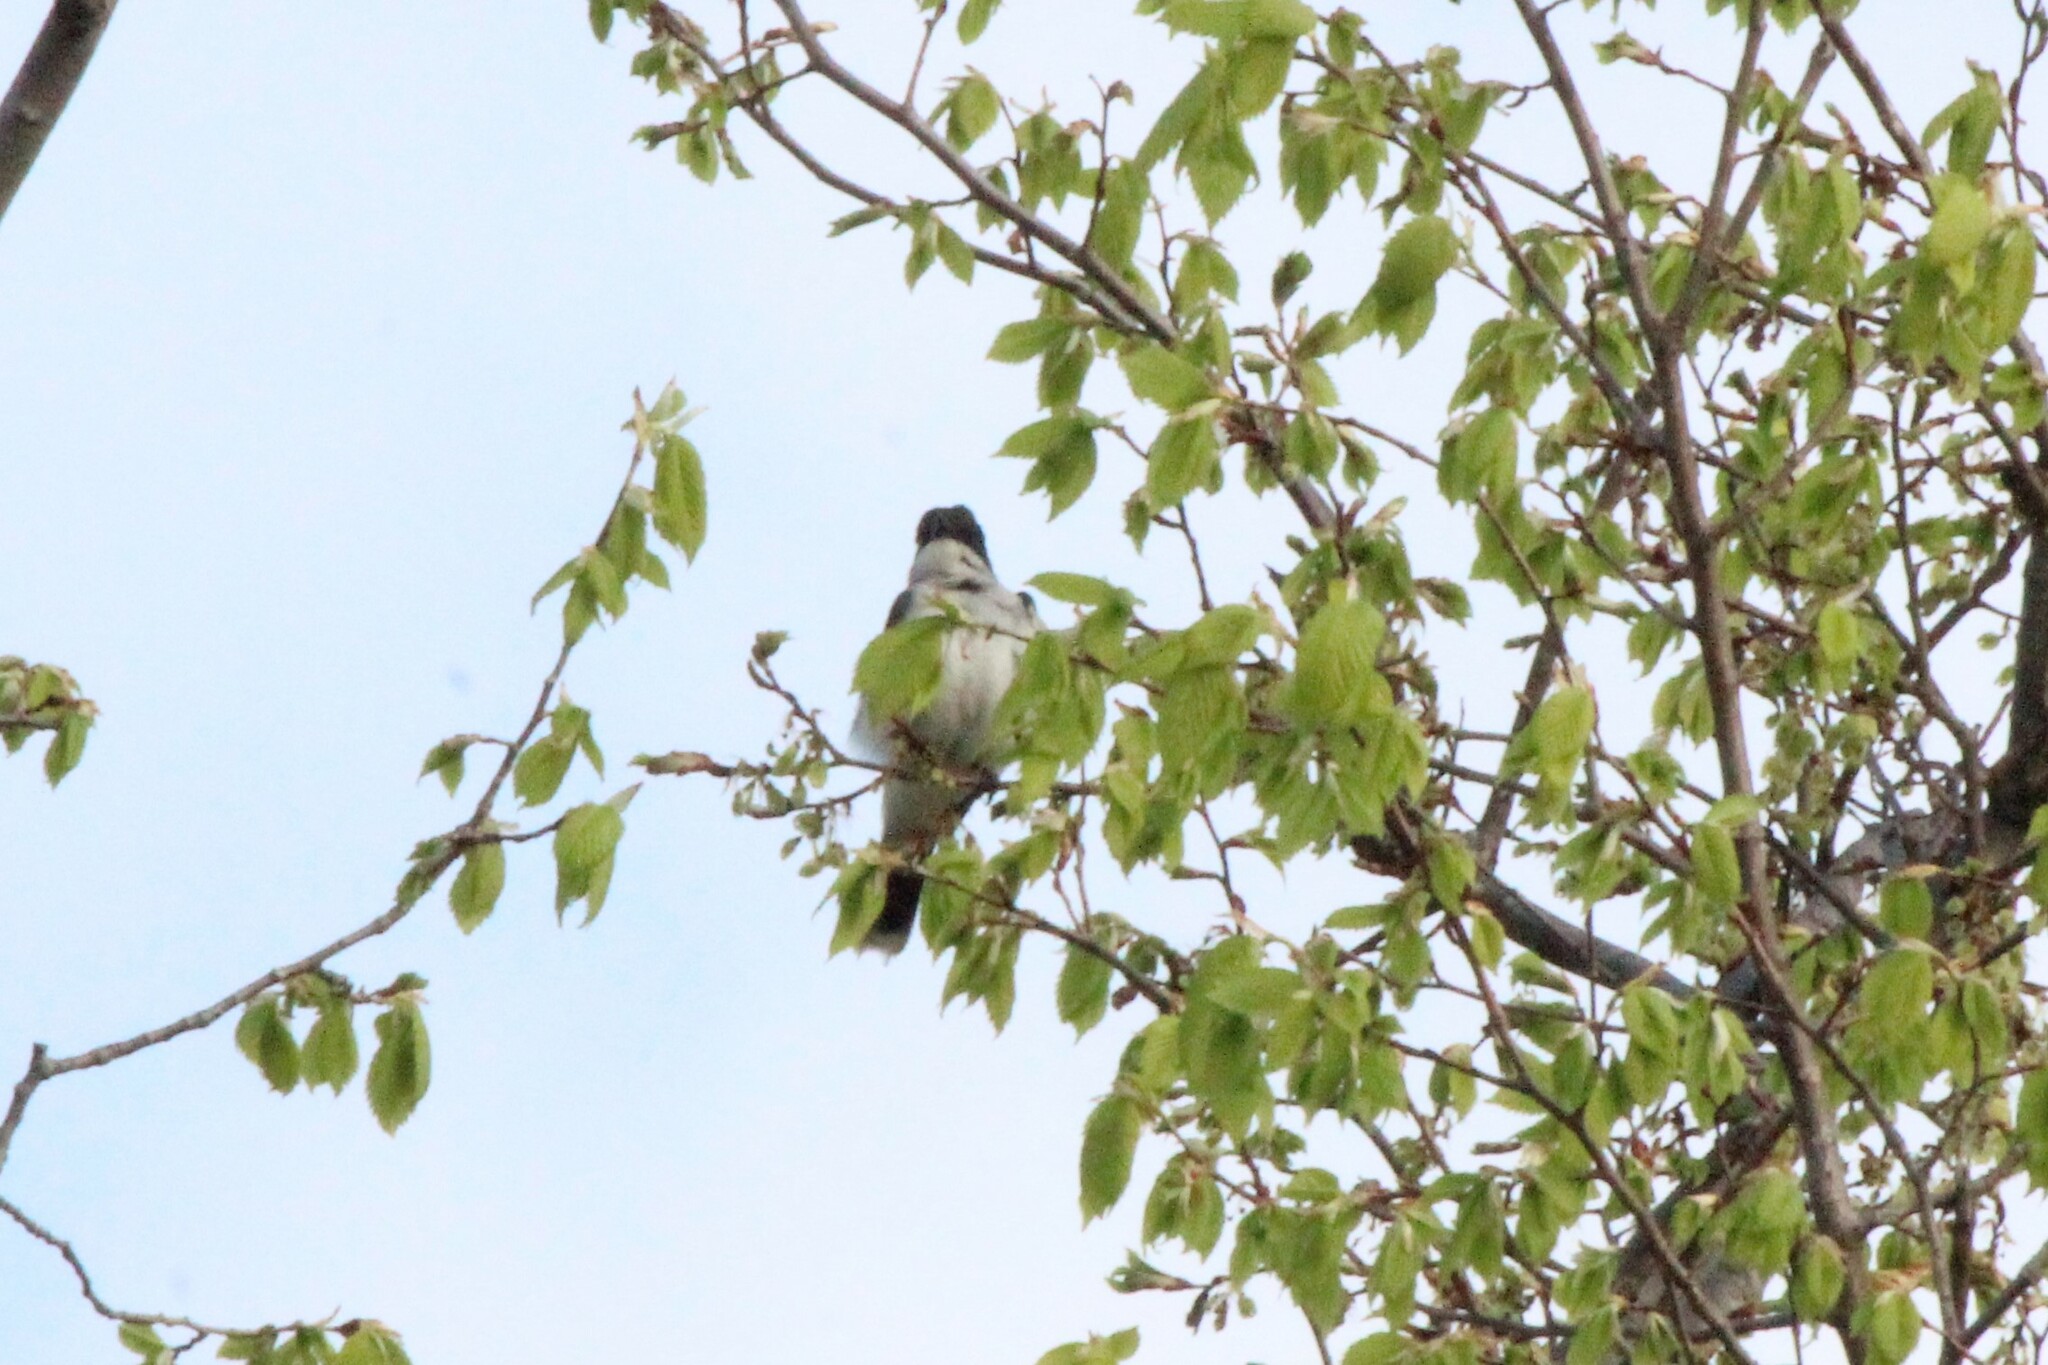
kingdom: Animalia
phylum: Chordata
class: Aves
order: Passeriformes
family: Tyrannidae
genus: Tyrannus
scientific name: Tyrannus tyrannus
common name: Eastern kingbird
